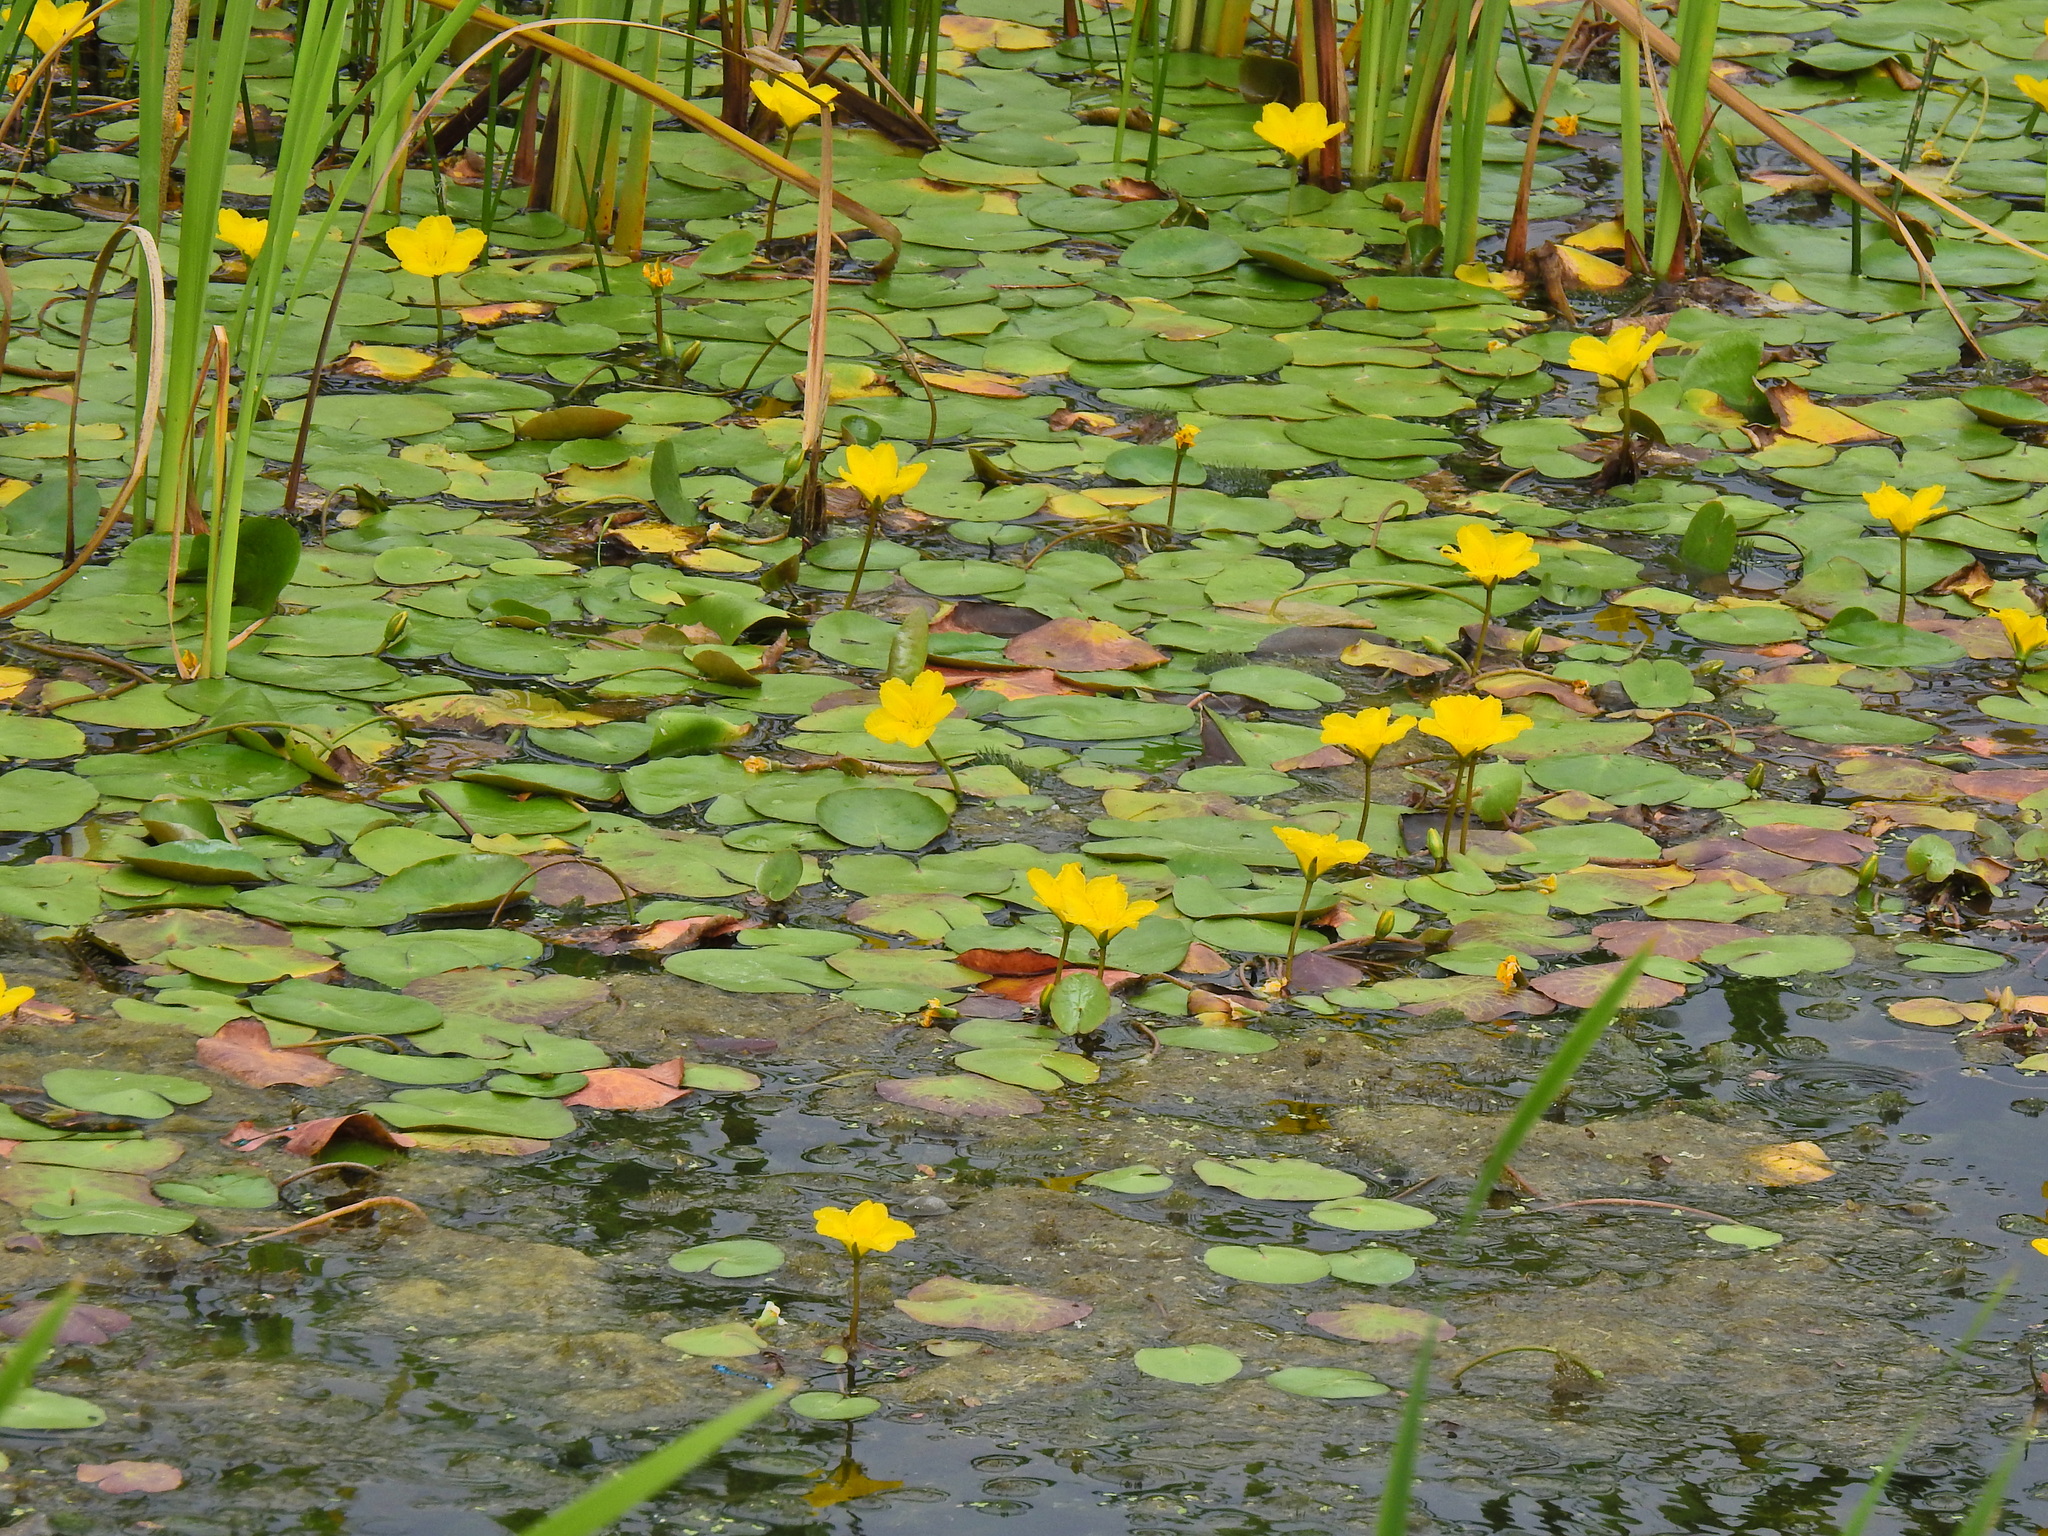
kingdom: Plantae
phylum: Tracheophyta
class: Magnoliopsida
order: Asterales
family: Menyanthaceae
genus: Nymphoides
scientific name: Nymphoides peltata
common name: Fringed water-lily
